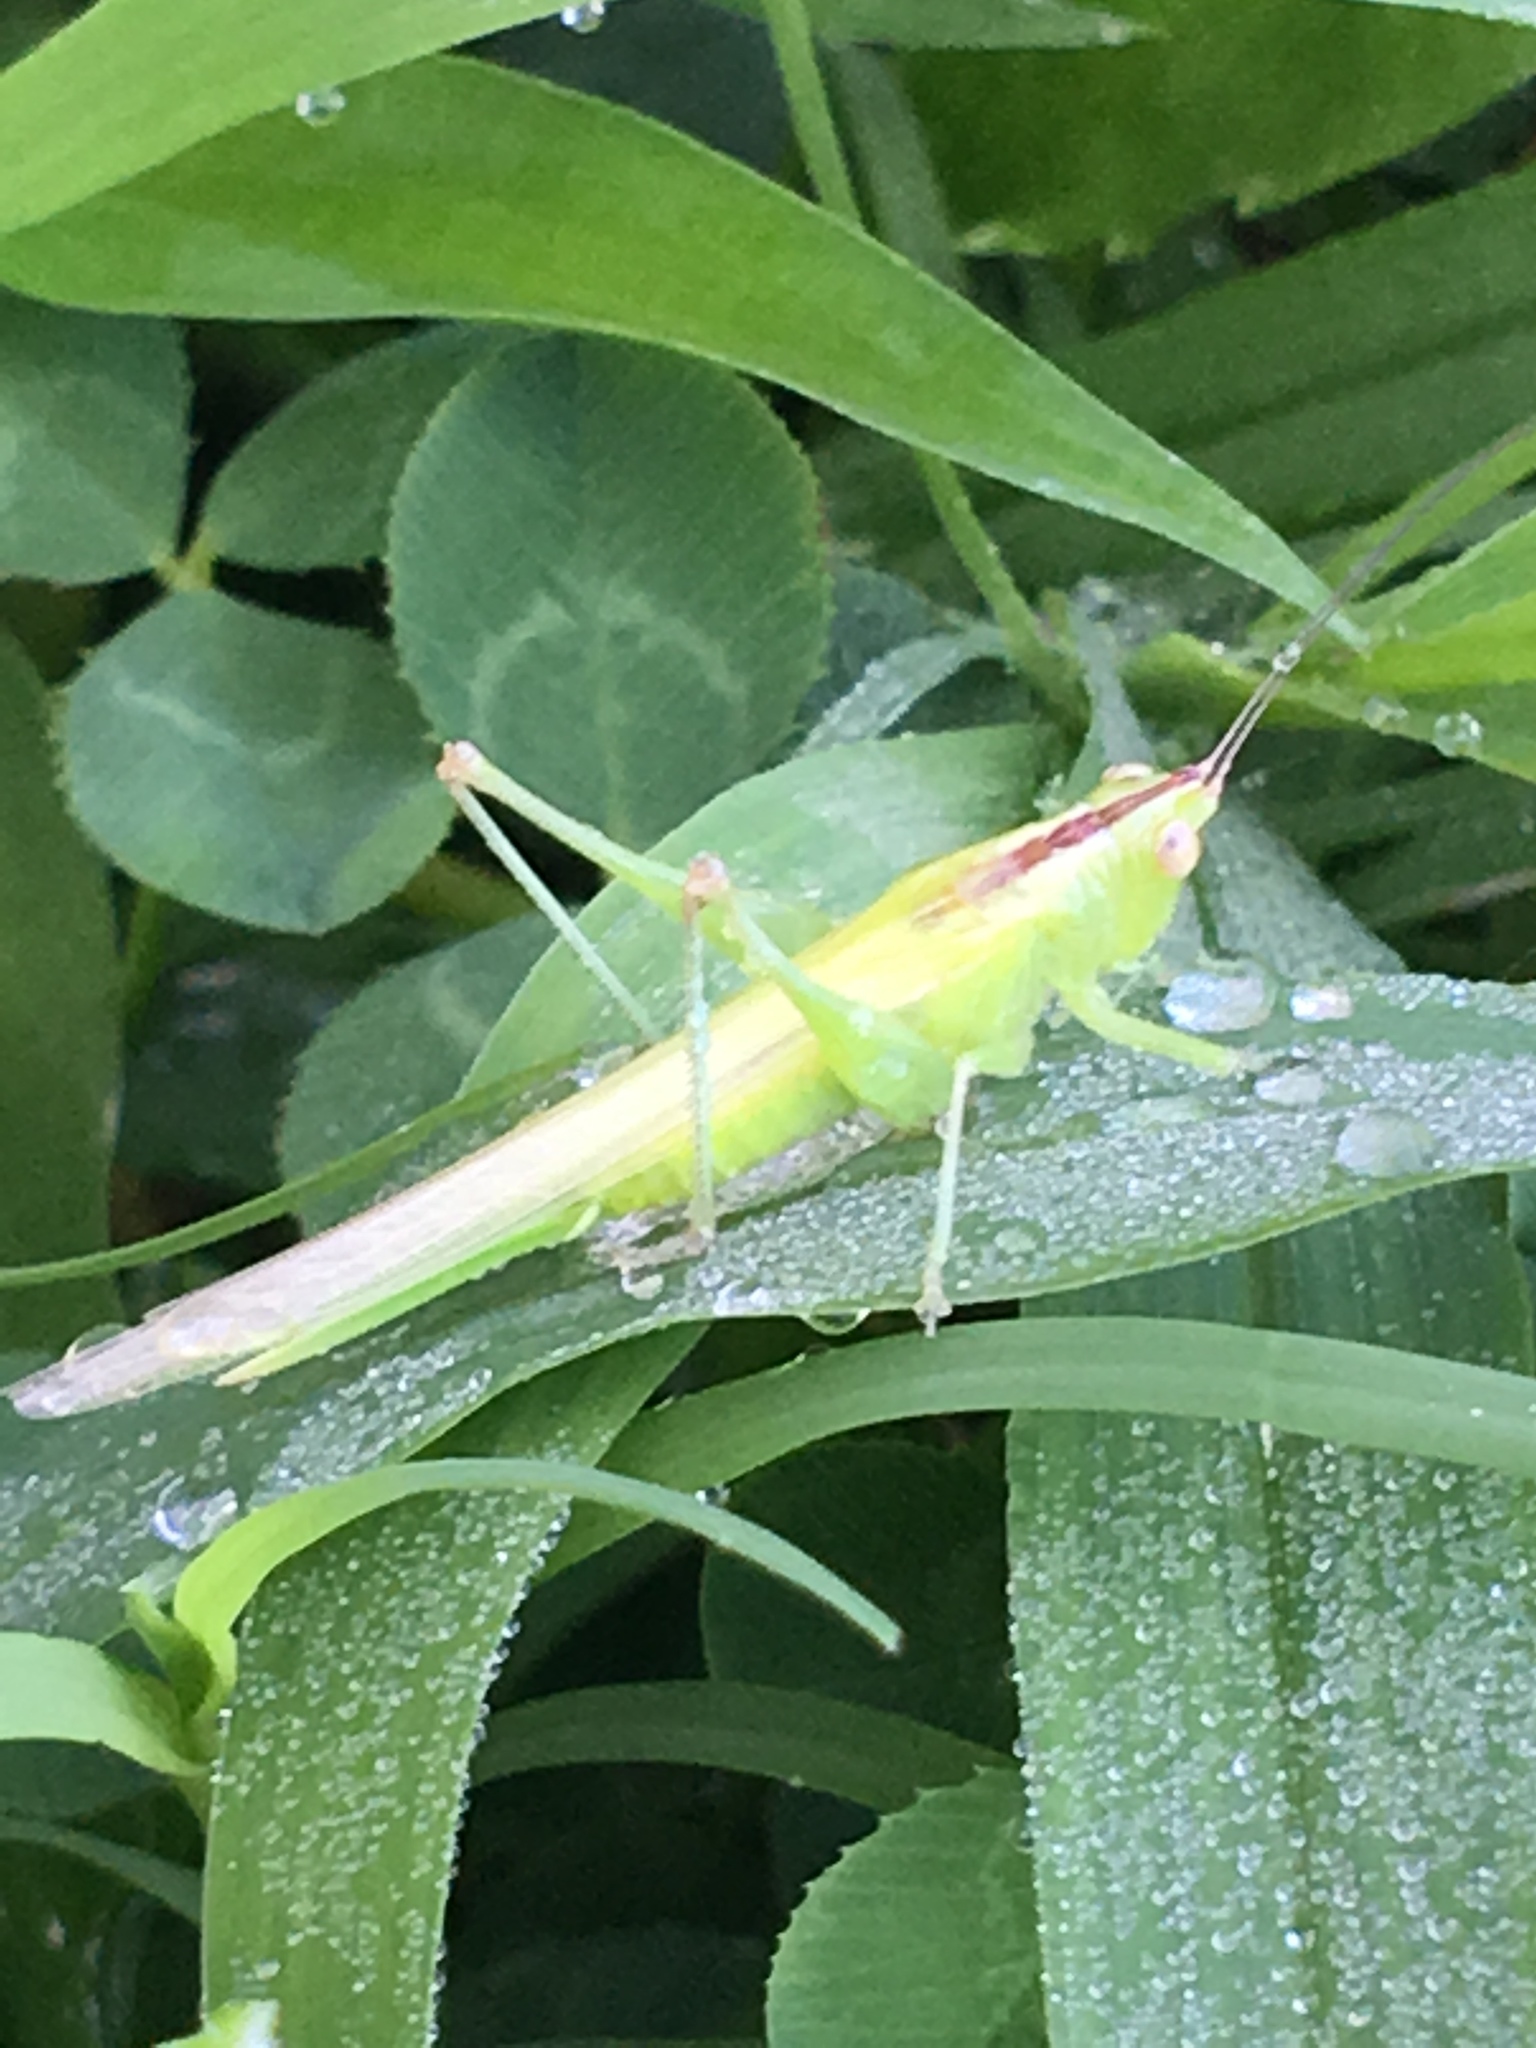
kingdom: Animalia
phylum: Arthropoda
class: Insecta
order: Orthoptera
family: Tettigoniidae
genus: Conocephalus
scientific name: Conocephalus fasciatus
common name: Slender meadow katydid
